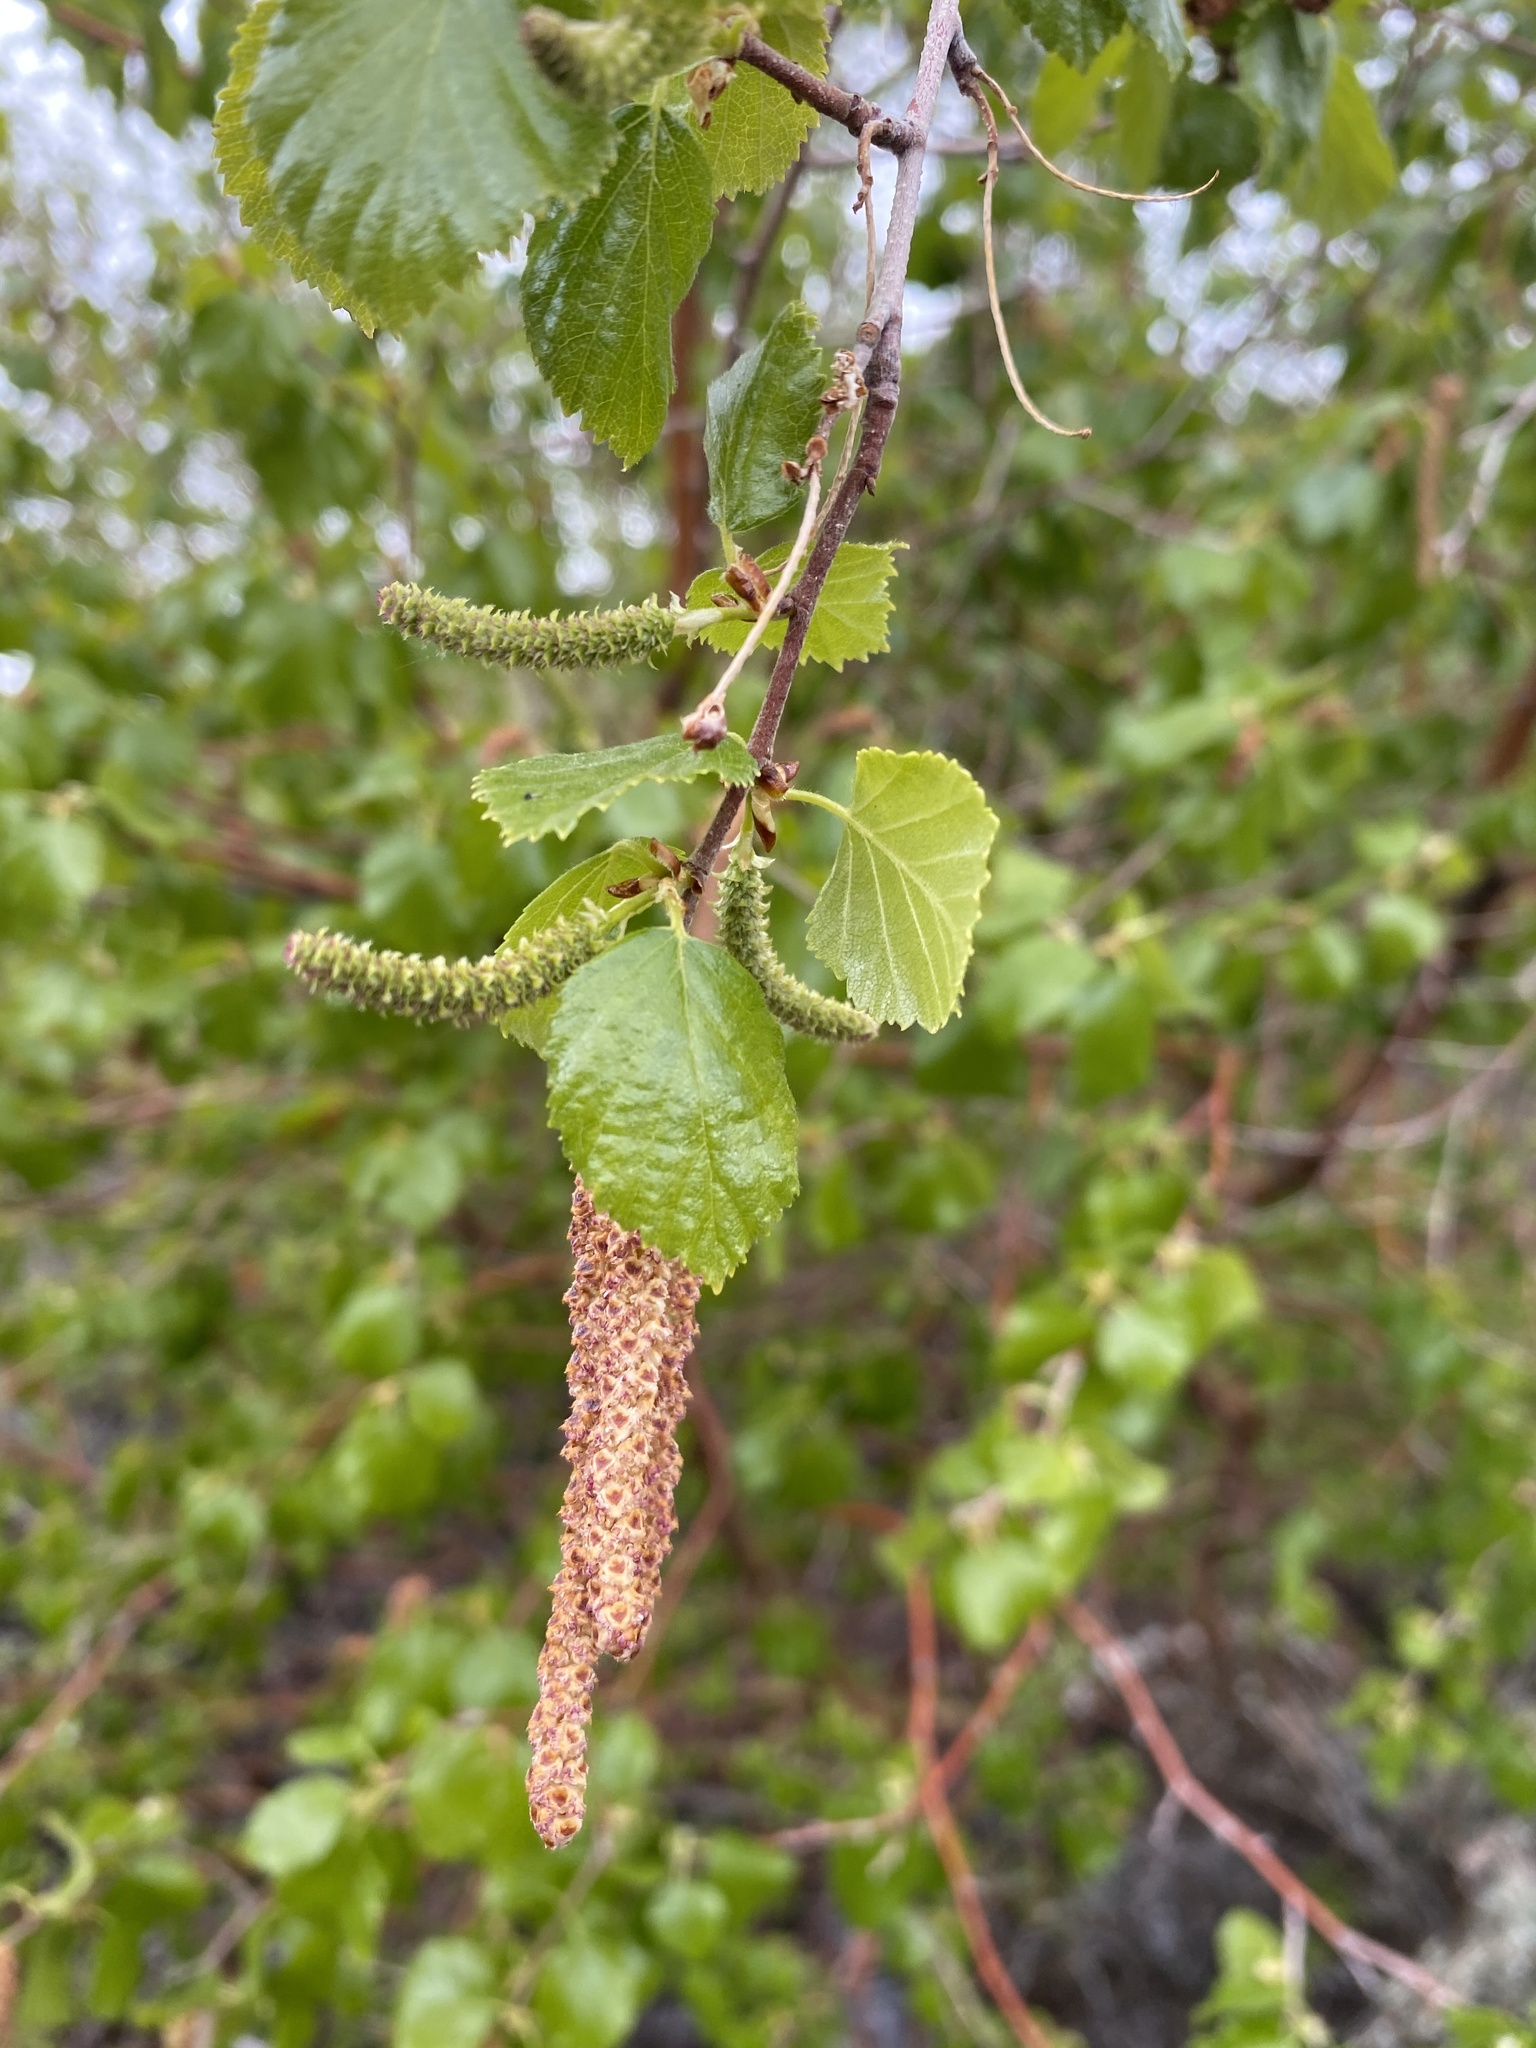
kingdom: Plantae
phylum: Tracheophyta
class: Magnoliopsida
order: Fagales
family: Betulaceae
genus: Betula
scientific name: Betula occidentalis
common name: River birch
